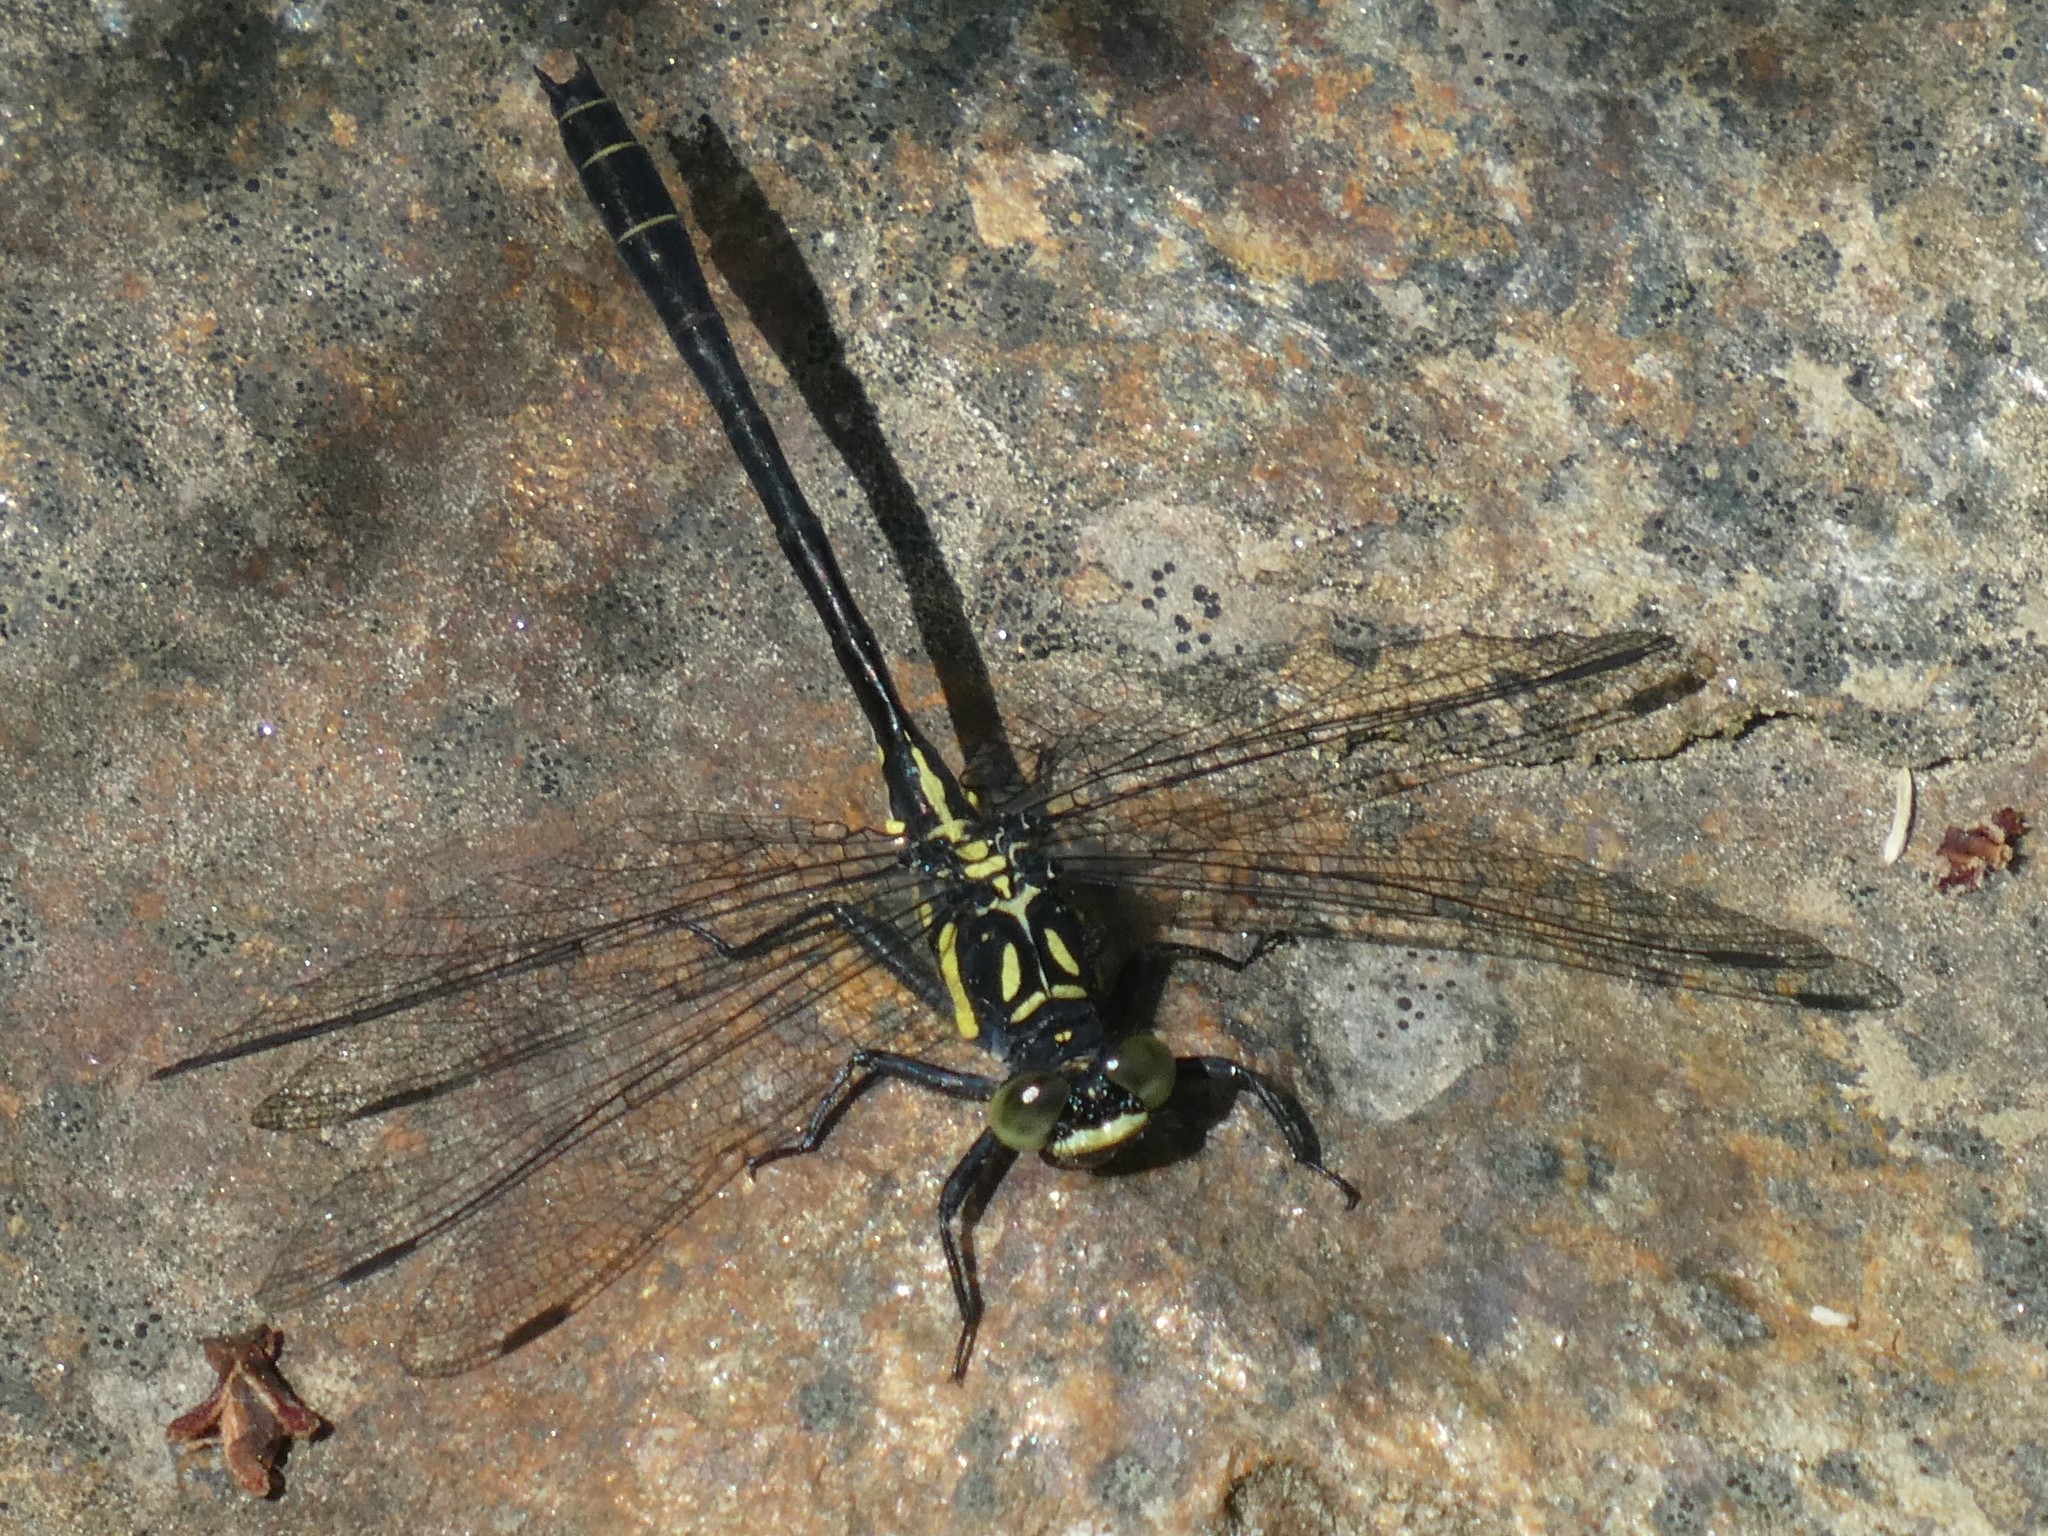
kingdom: Animalia
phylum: Arthropoda
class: Insecta
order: Odonata
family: Gomphidae
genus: Lanthus
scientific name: Lanthus parvulus
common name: Northern pygmy clubtail
